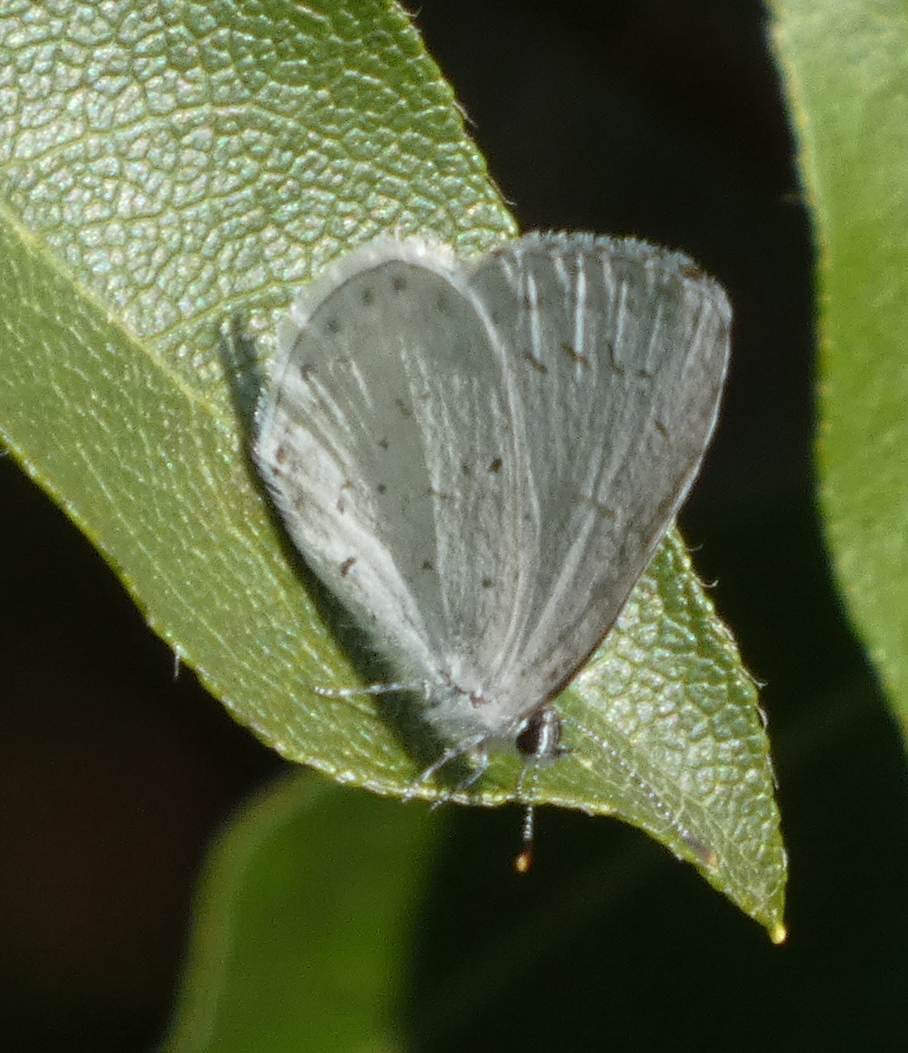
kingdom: Animalia
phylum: Arthropoda
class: Insecta
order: Lepidoptera
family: Lycaenidae
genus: Celastrina
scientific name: Celastrina
